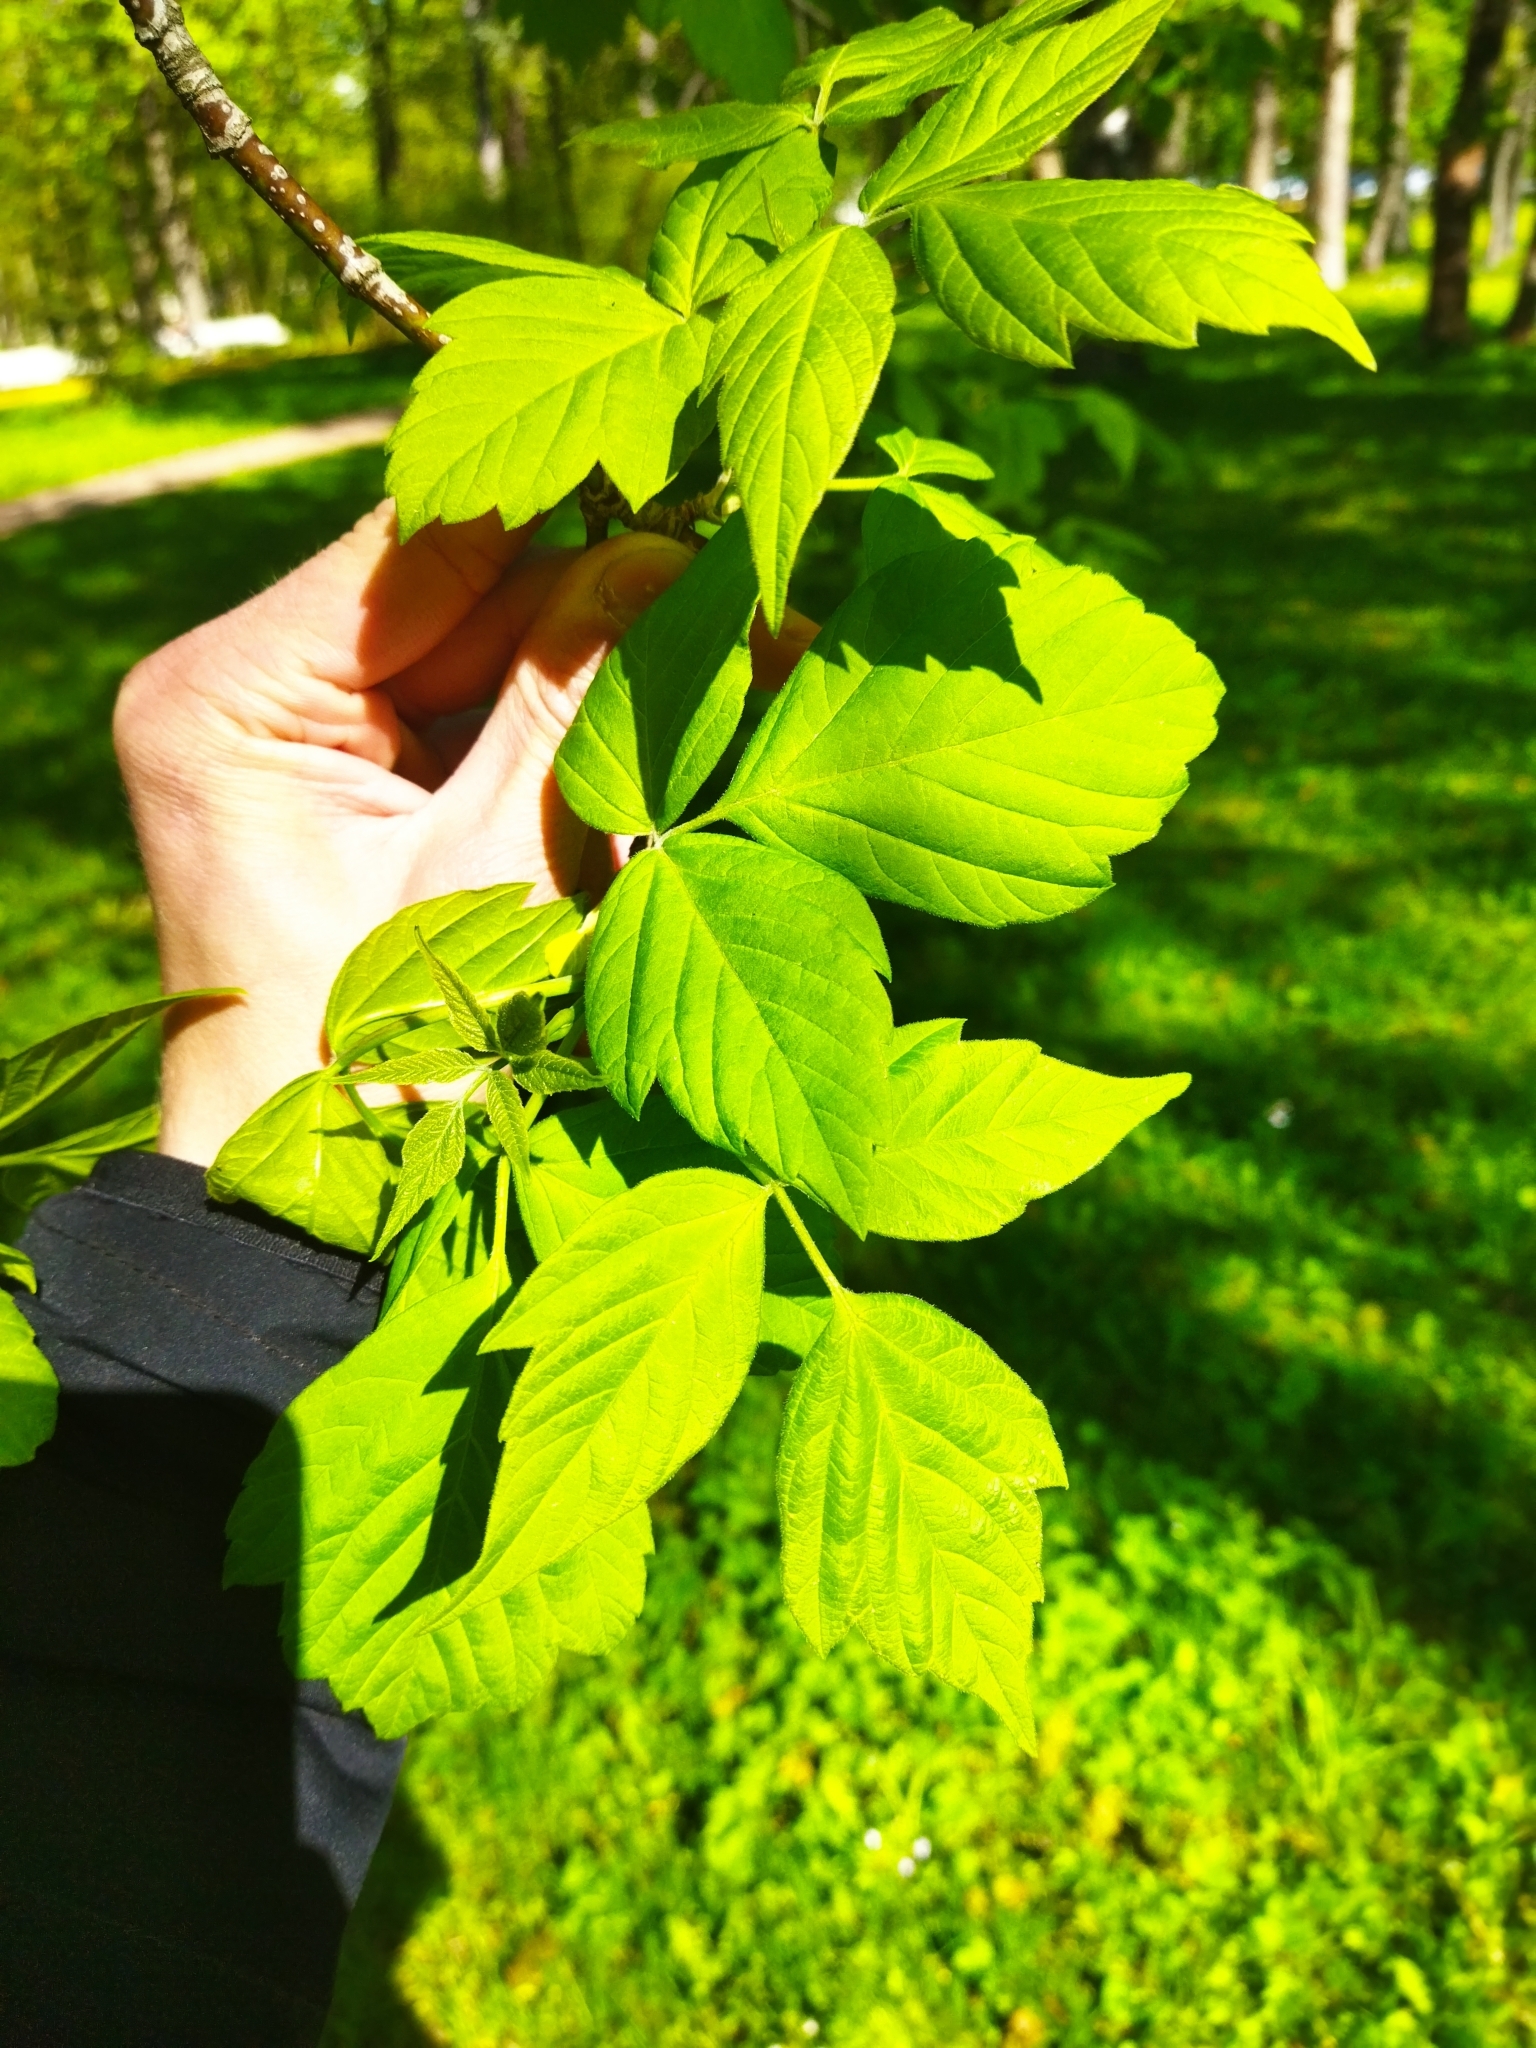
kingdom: Plantae
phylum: Tracheophyta
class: Magnoliopsida
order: Sapindales
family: Sapindaceae
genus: Acer
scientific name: Acer negundo
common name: Ashleaf maple
